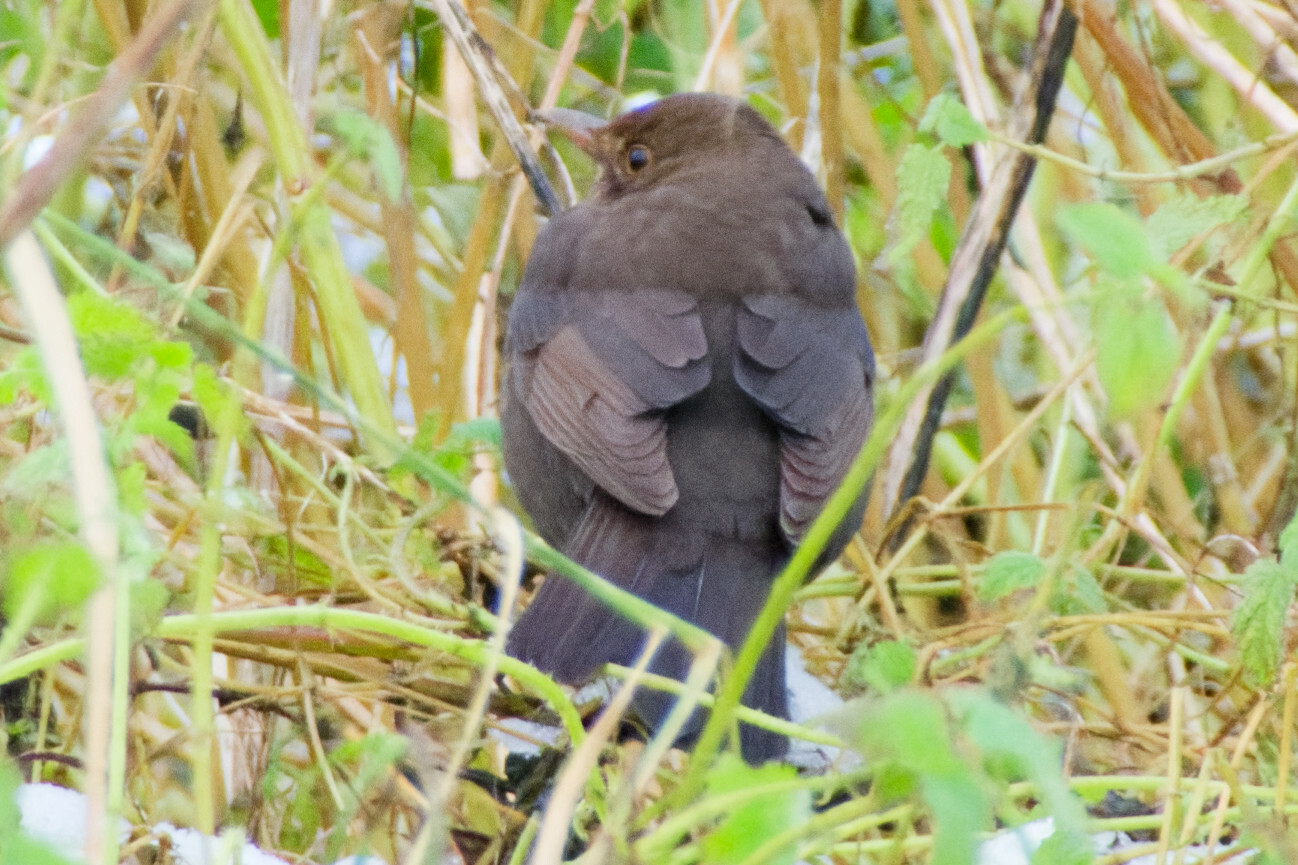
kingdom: Animalia
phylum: Chordata
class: Aves
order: Passeriformes
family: Turdidae
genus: Turdus
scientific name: Turdus merula
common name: Common blackbird
